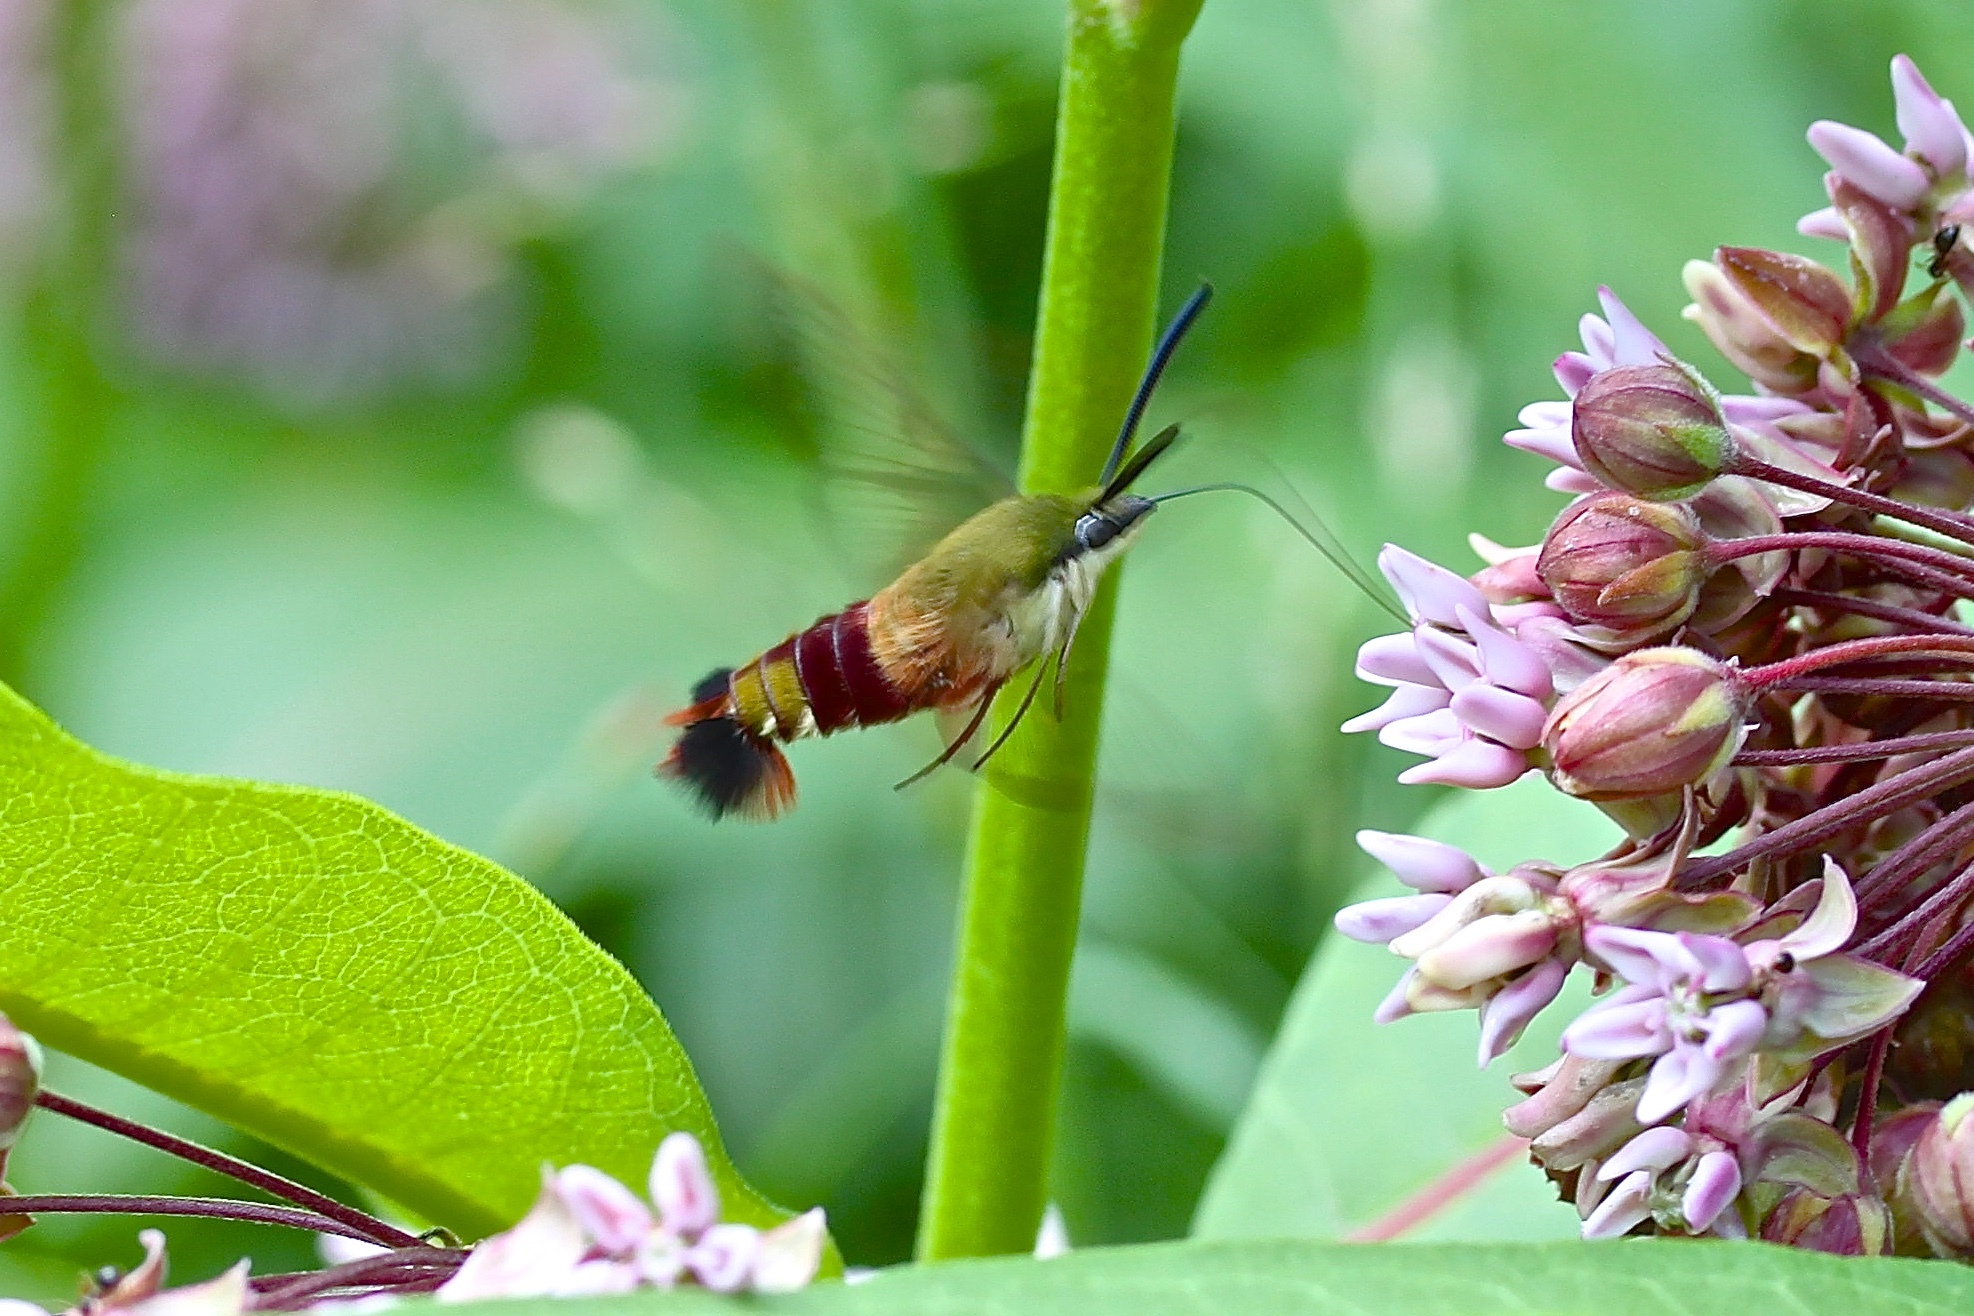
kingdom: Animalia
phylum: Arthropoda
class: Insecta
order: Lepidoptera
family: Sphingidae
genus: Hemaris
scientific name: Hemaris thysbe
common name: Common clear-wing
